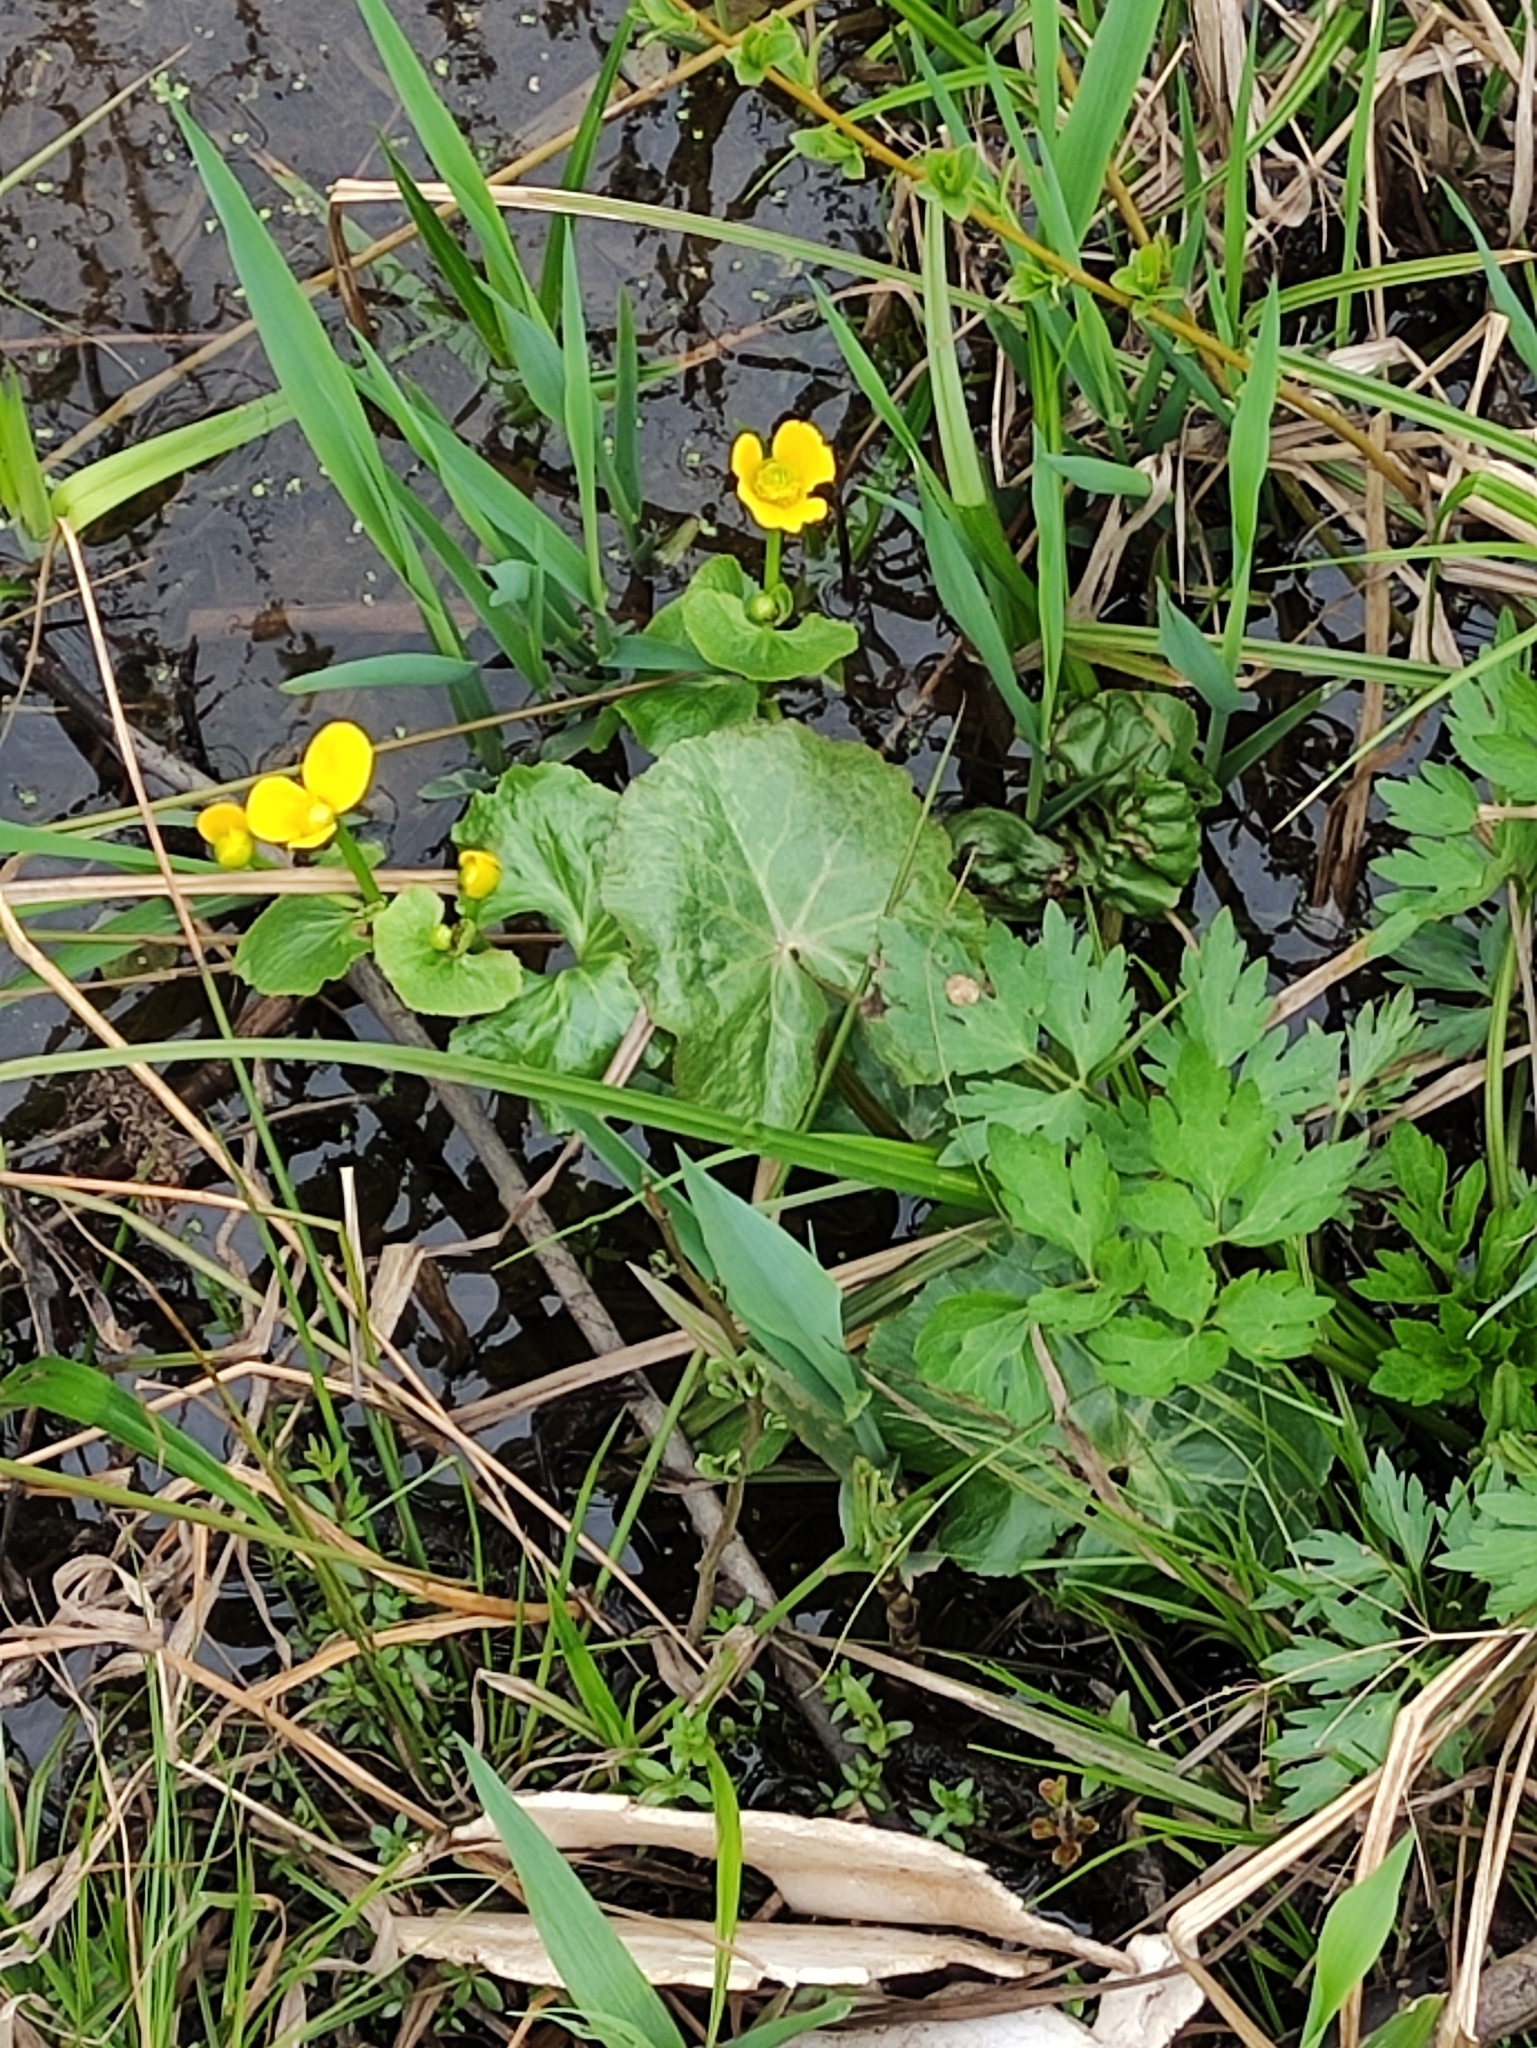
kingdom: Plantae
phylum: Tracheophyta
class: Magnoliopsida
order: Ranunculales
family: Ranunculaceae
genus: Caltha
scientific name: Caltha palustris
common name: Marsh marigold
